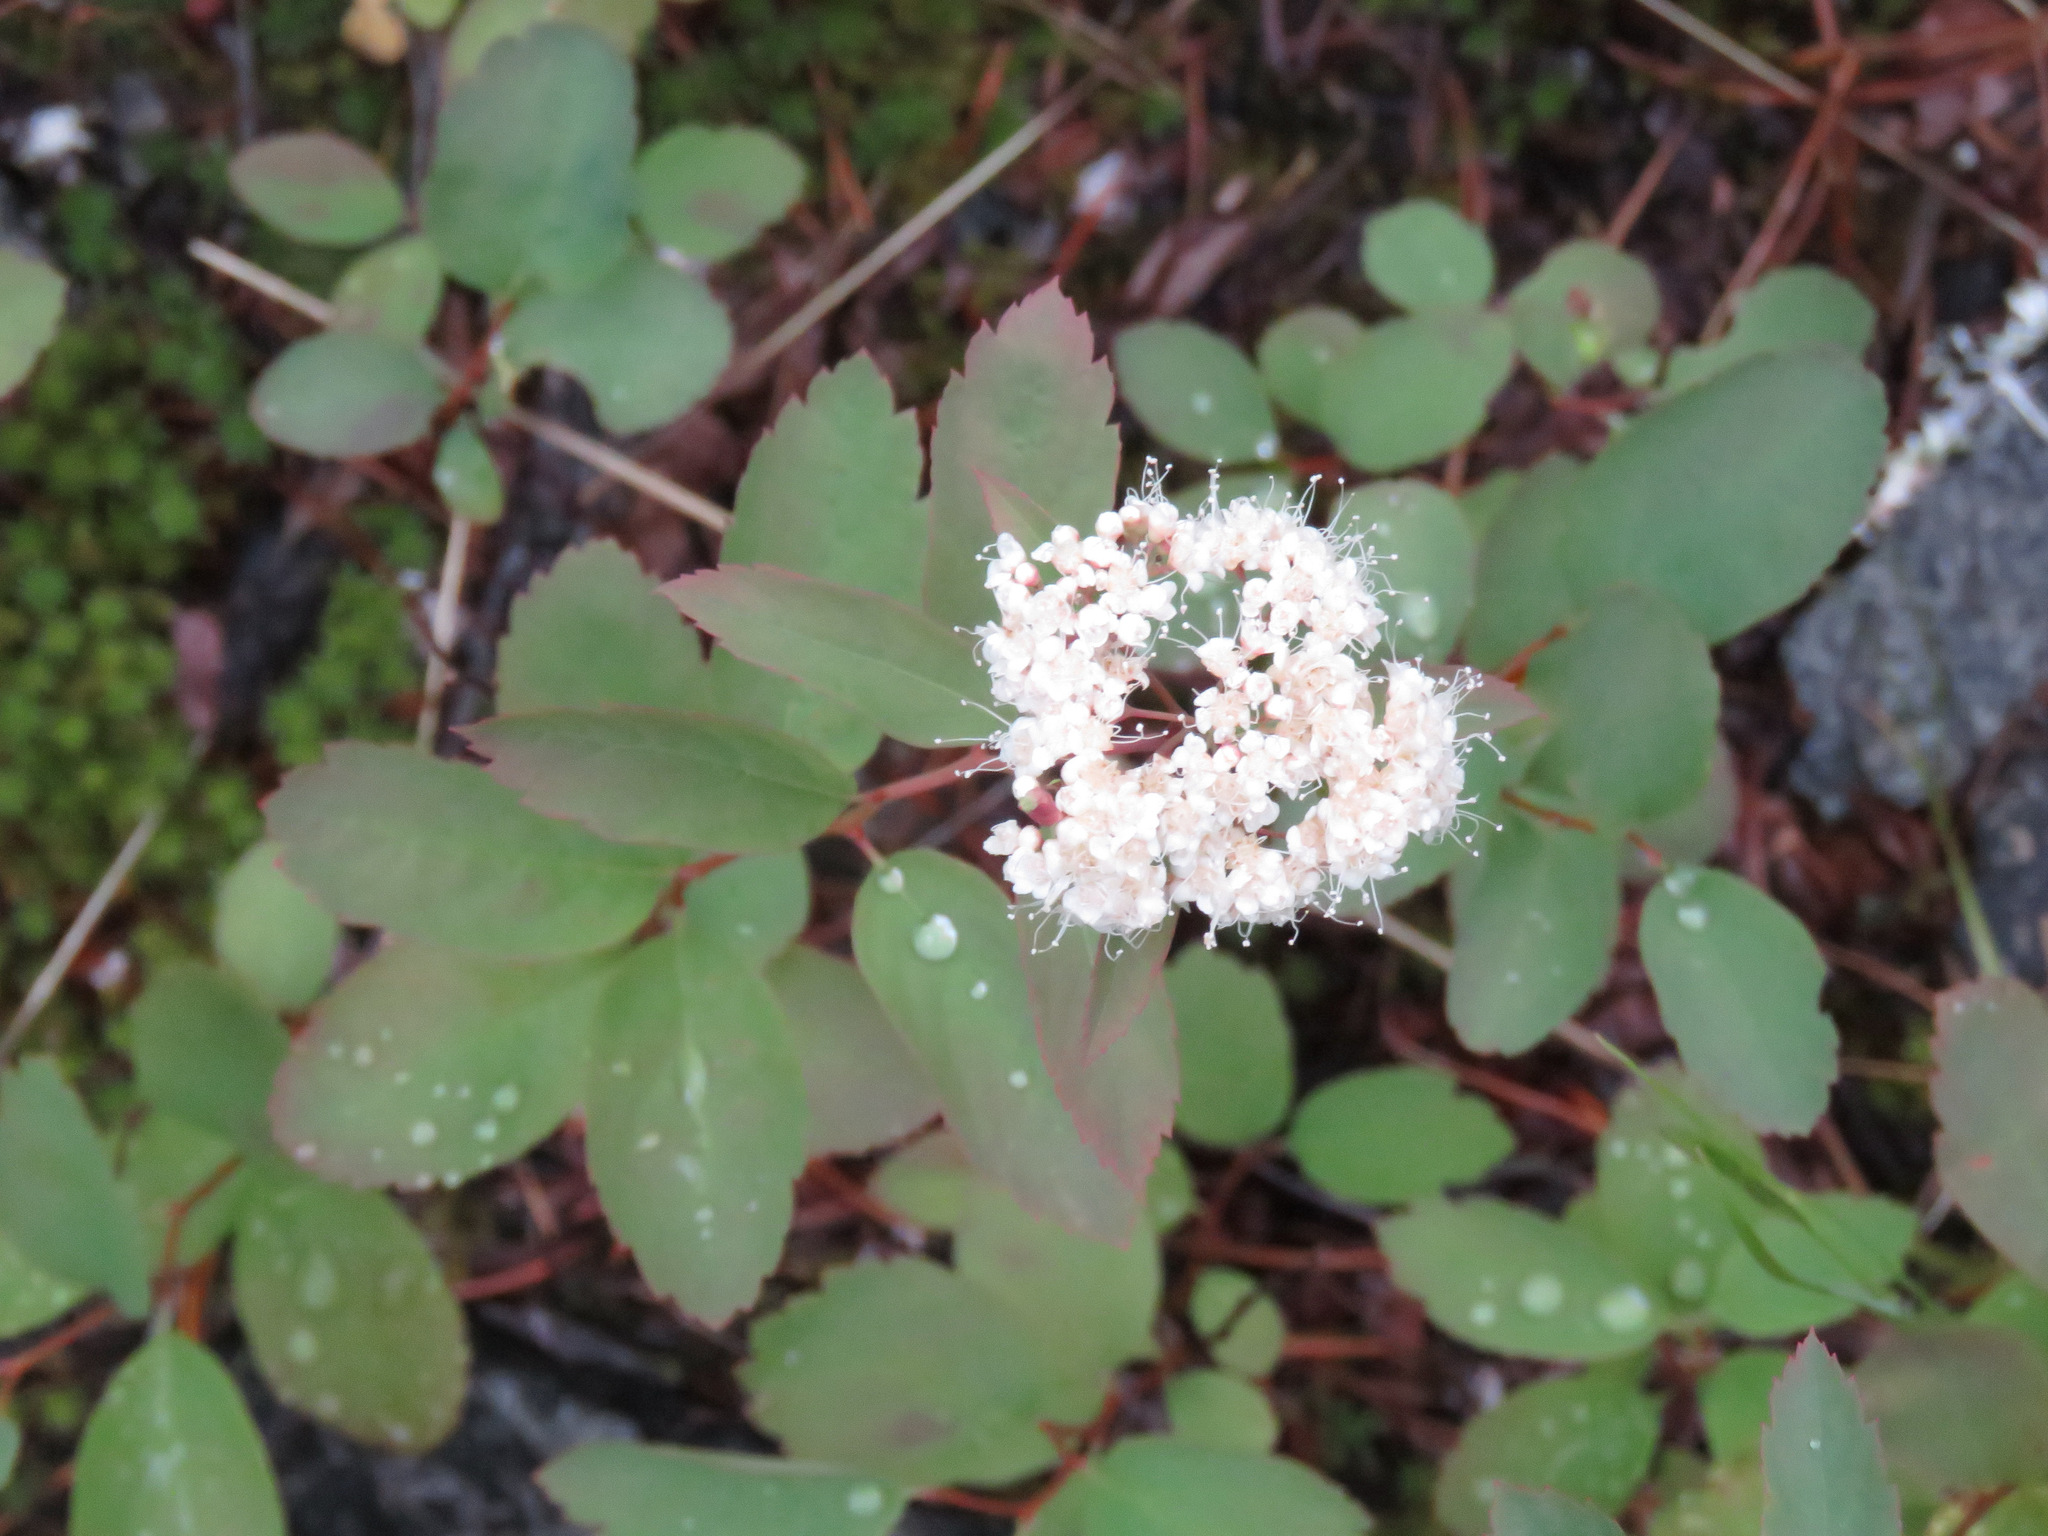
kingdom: Plantae
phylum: Tracheophyta
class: Magnoliopsida
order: Rosales
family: Rosaceae
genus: Spiraea
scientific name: Spiraea lucida
